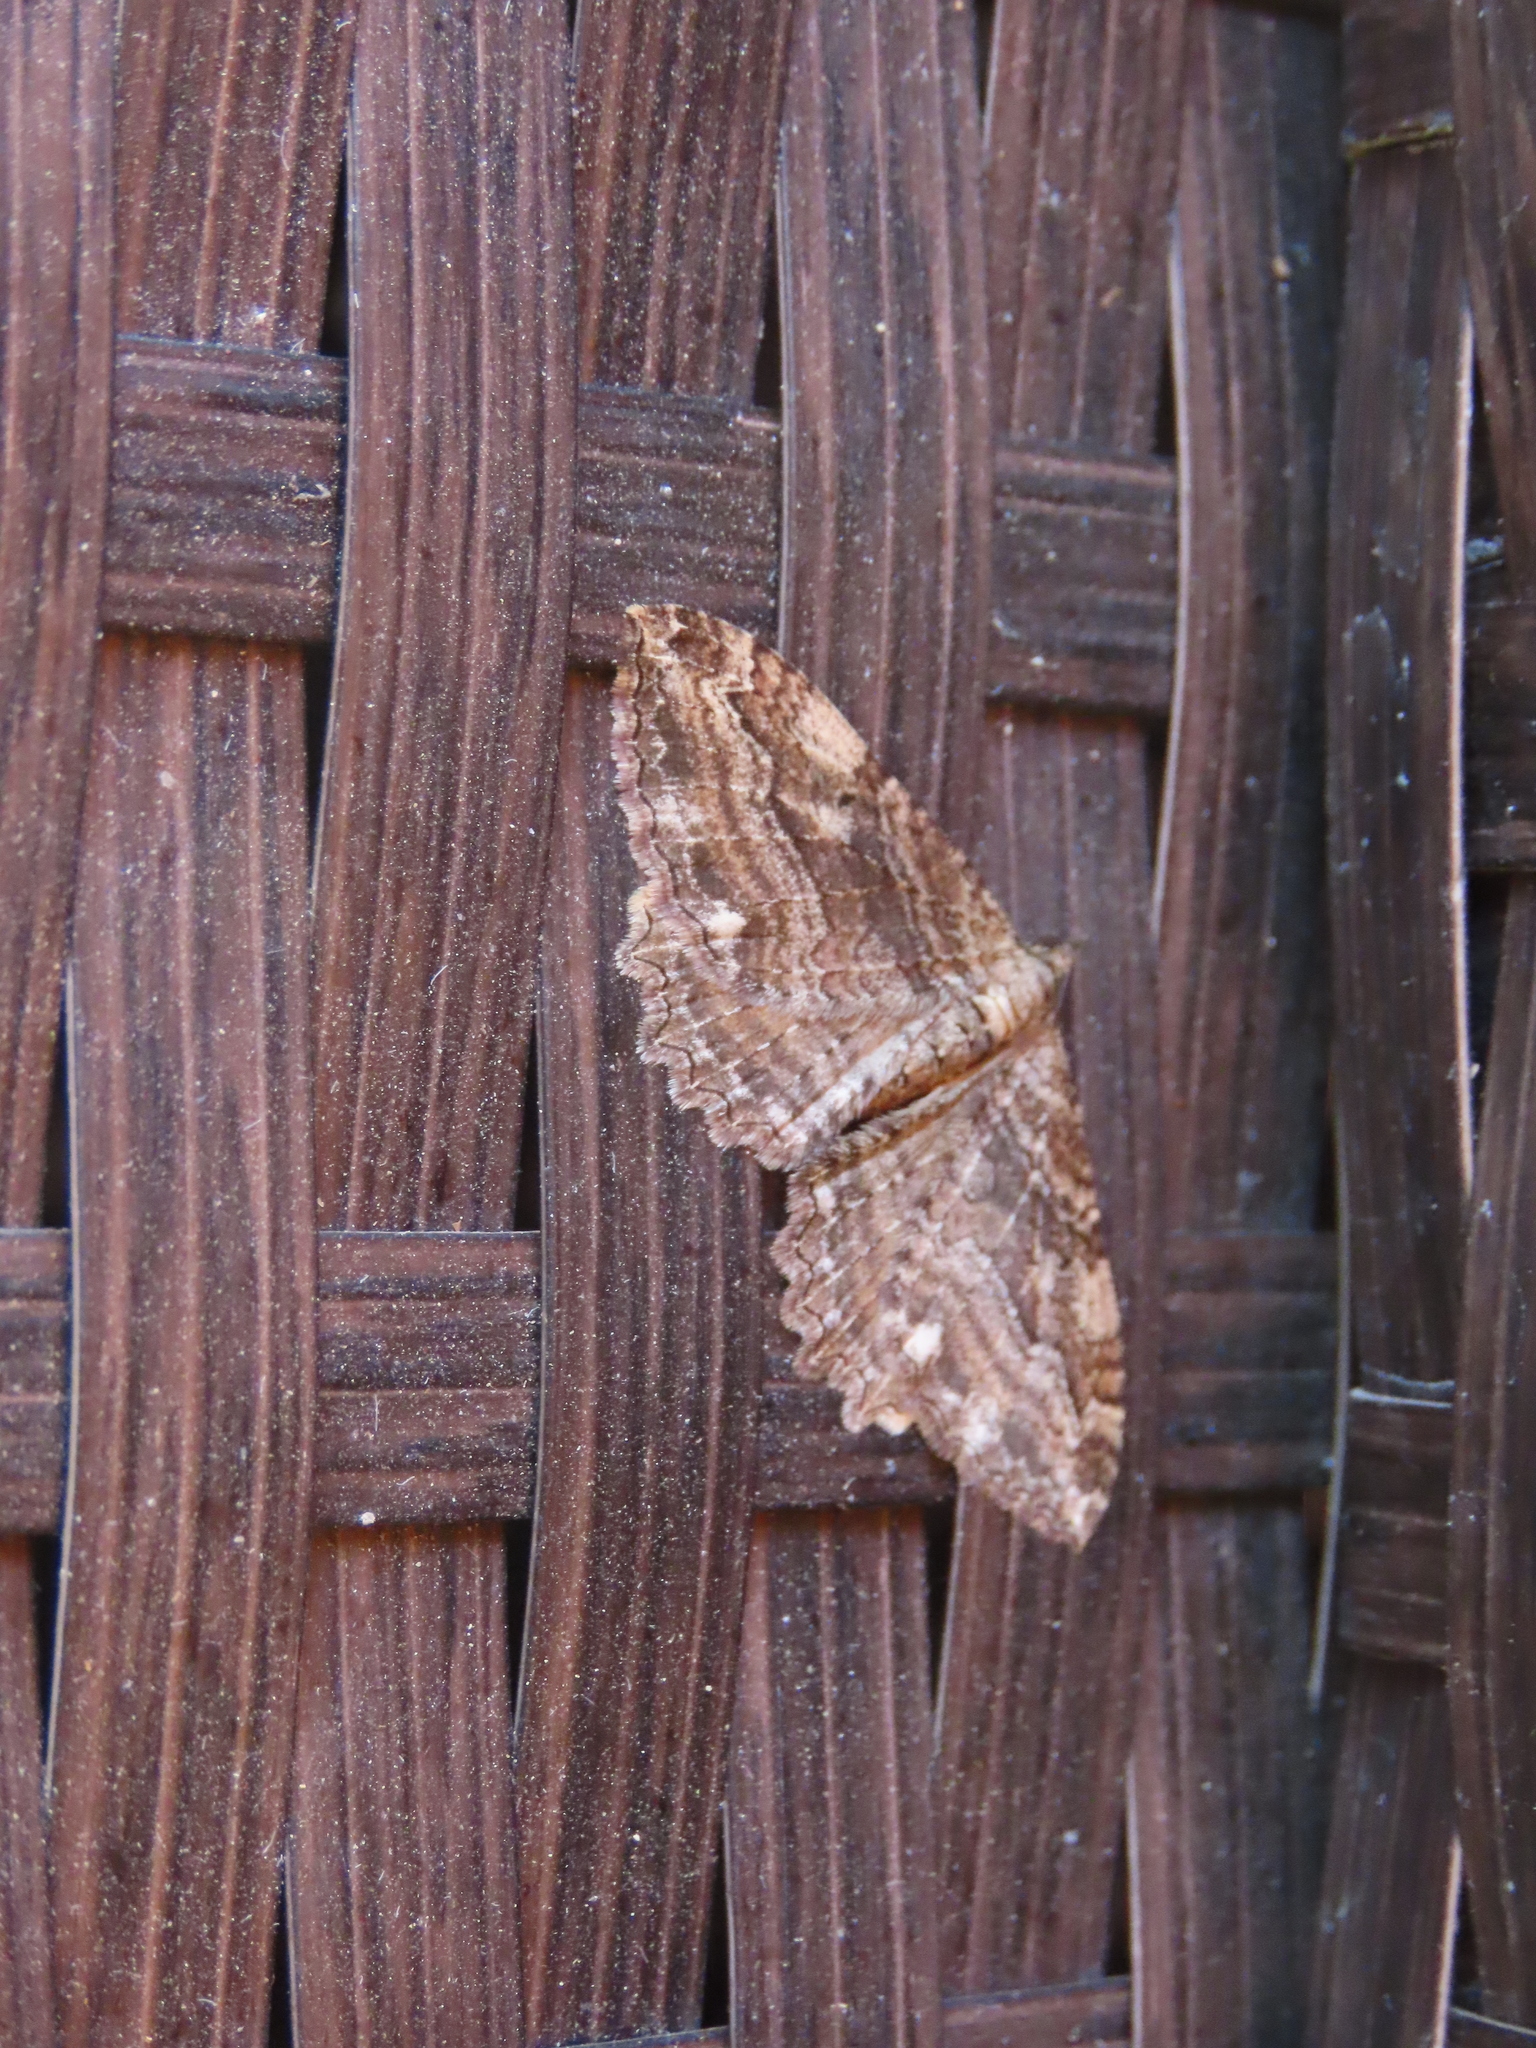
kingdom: Animalia
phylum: Arthropoda
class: Insecta
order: Lepidoptera
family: Geometridae
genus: Rheumaptera
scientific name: Rheumaptera
